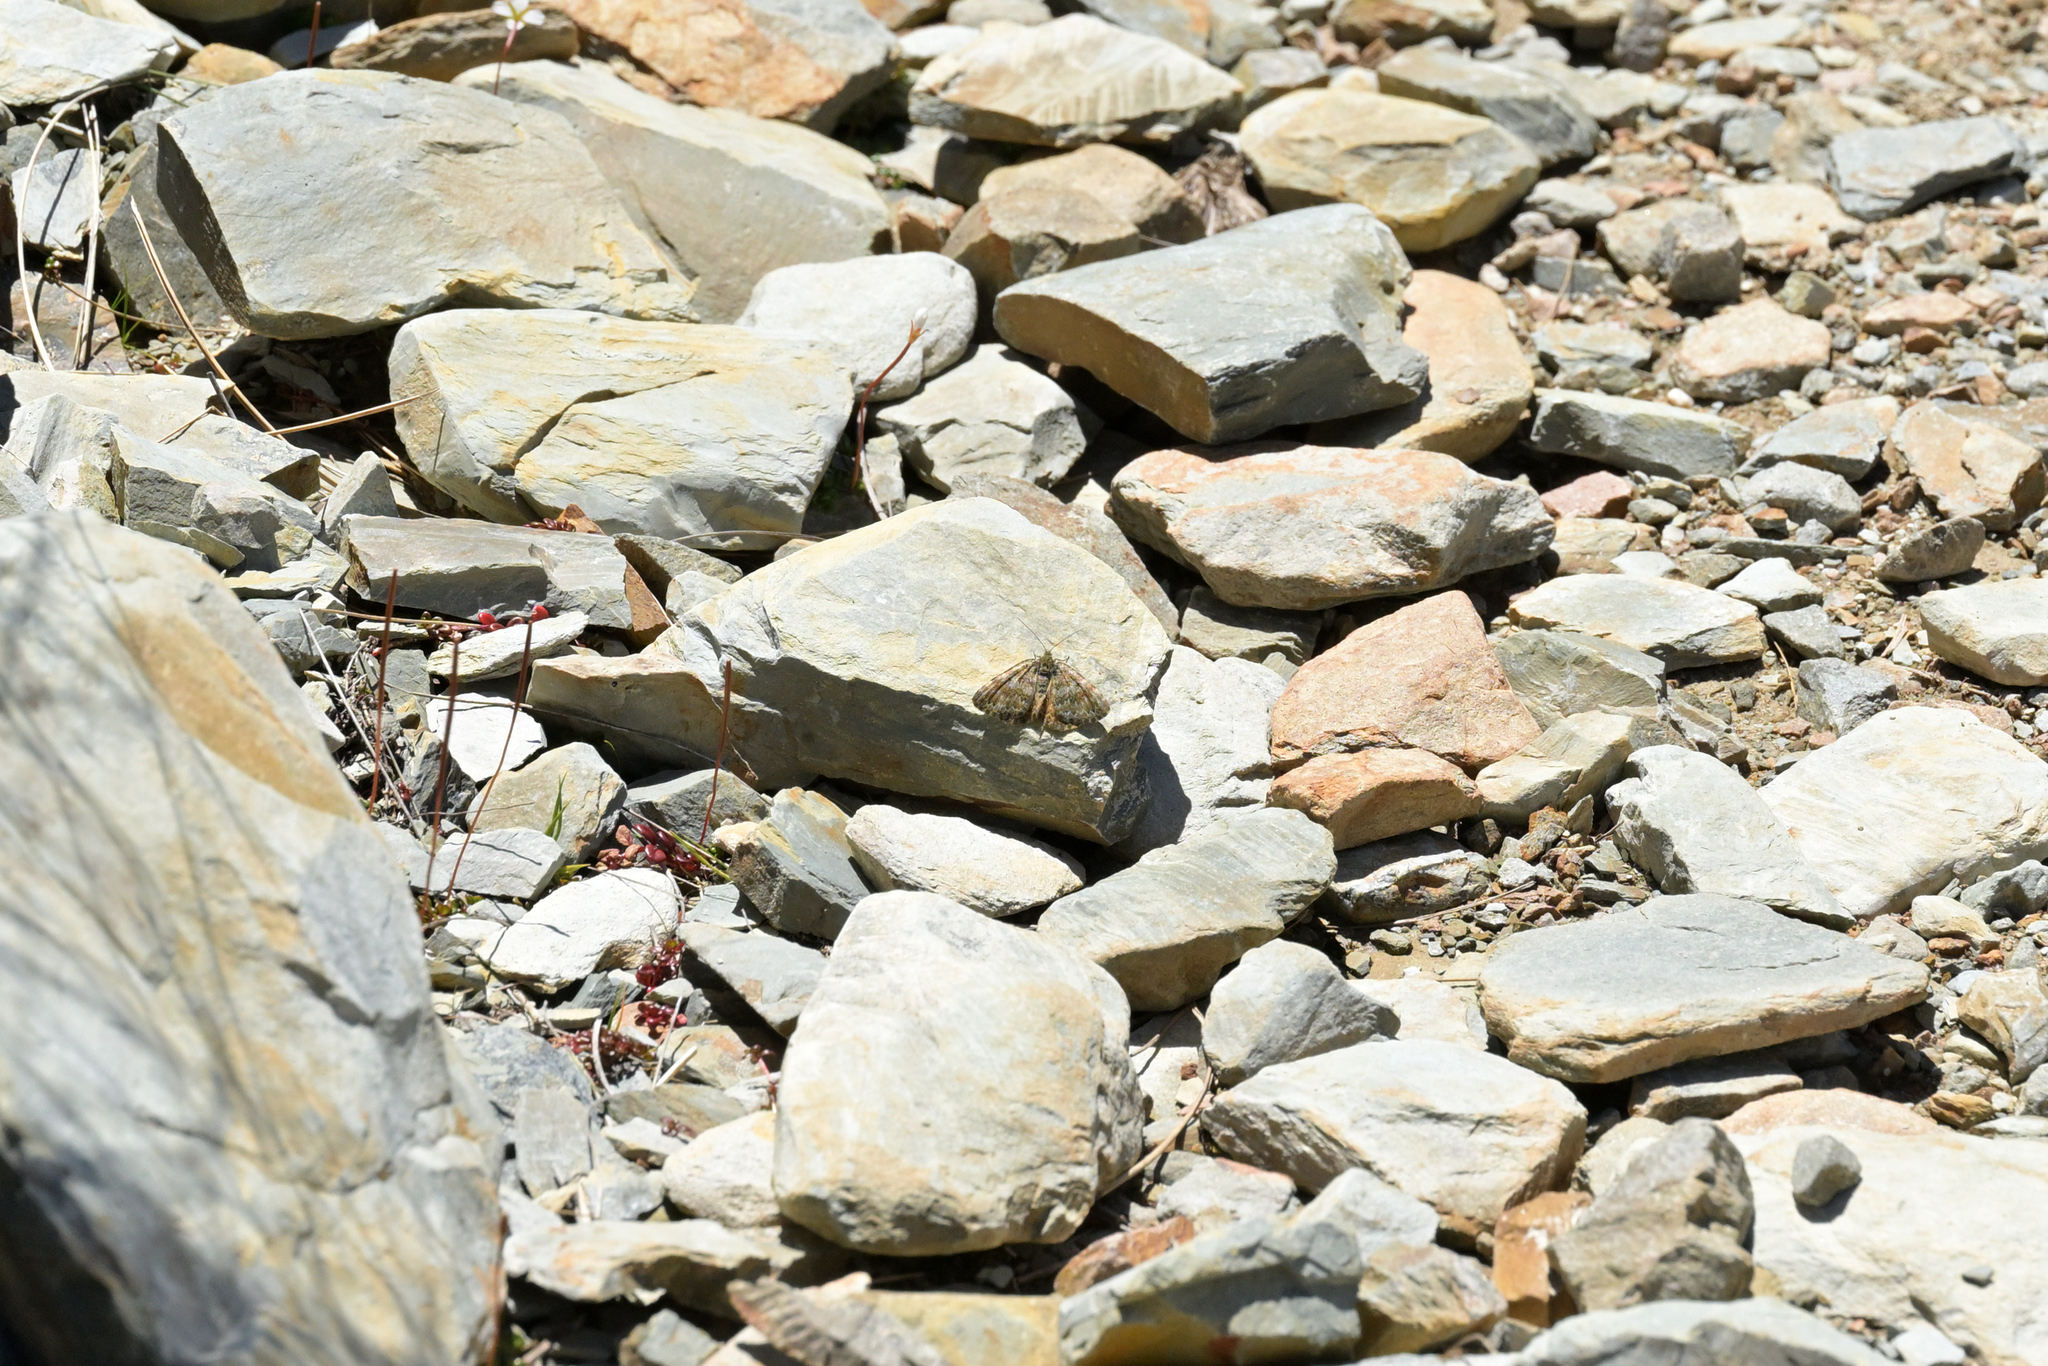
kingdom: Animalia
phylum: Arthropoda
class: Insecta
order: Lepidoptera
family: Geometridae
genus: Dasyuris
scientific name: Dasyuris anceps
